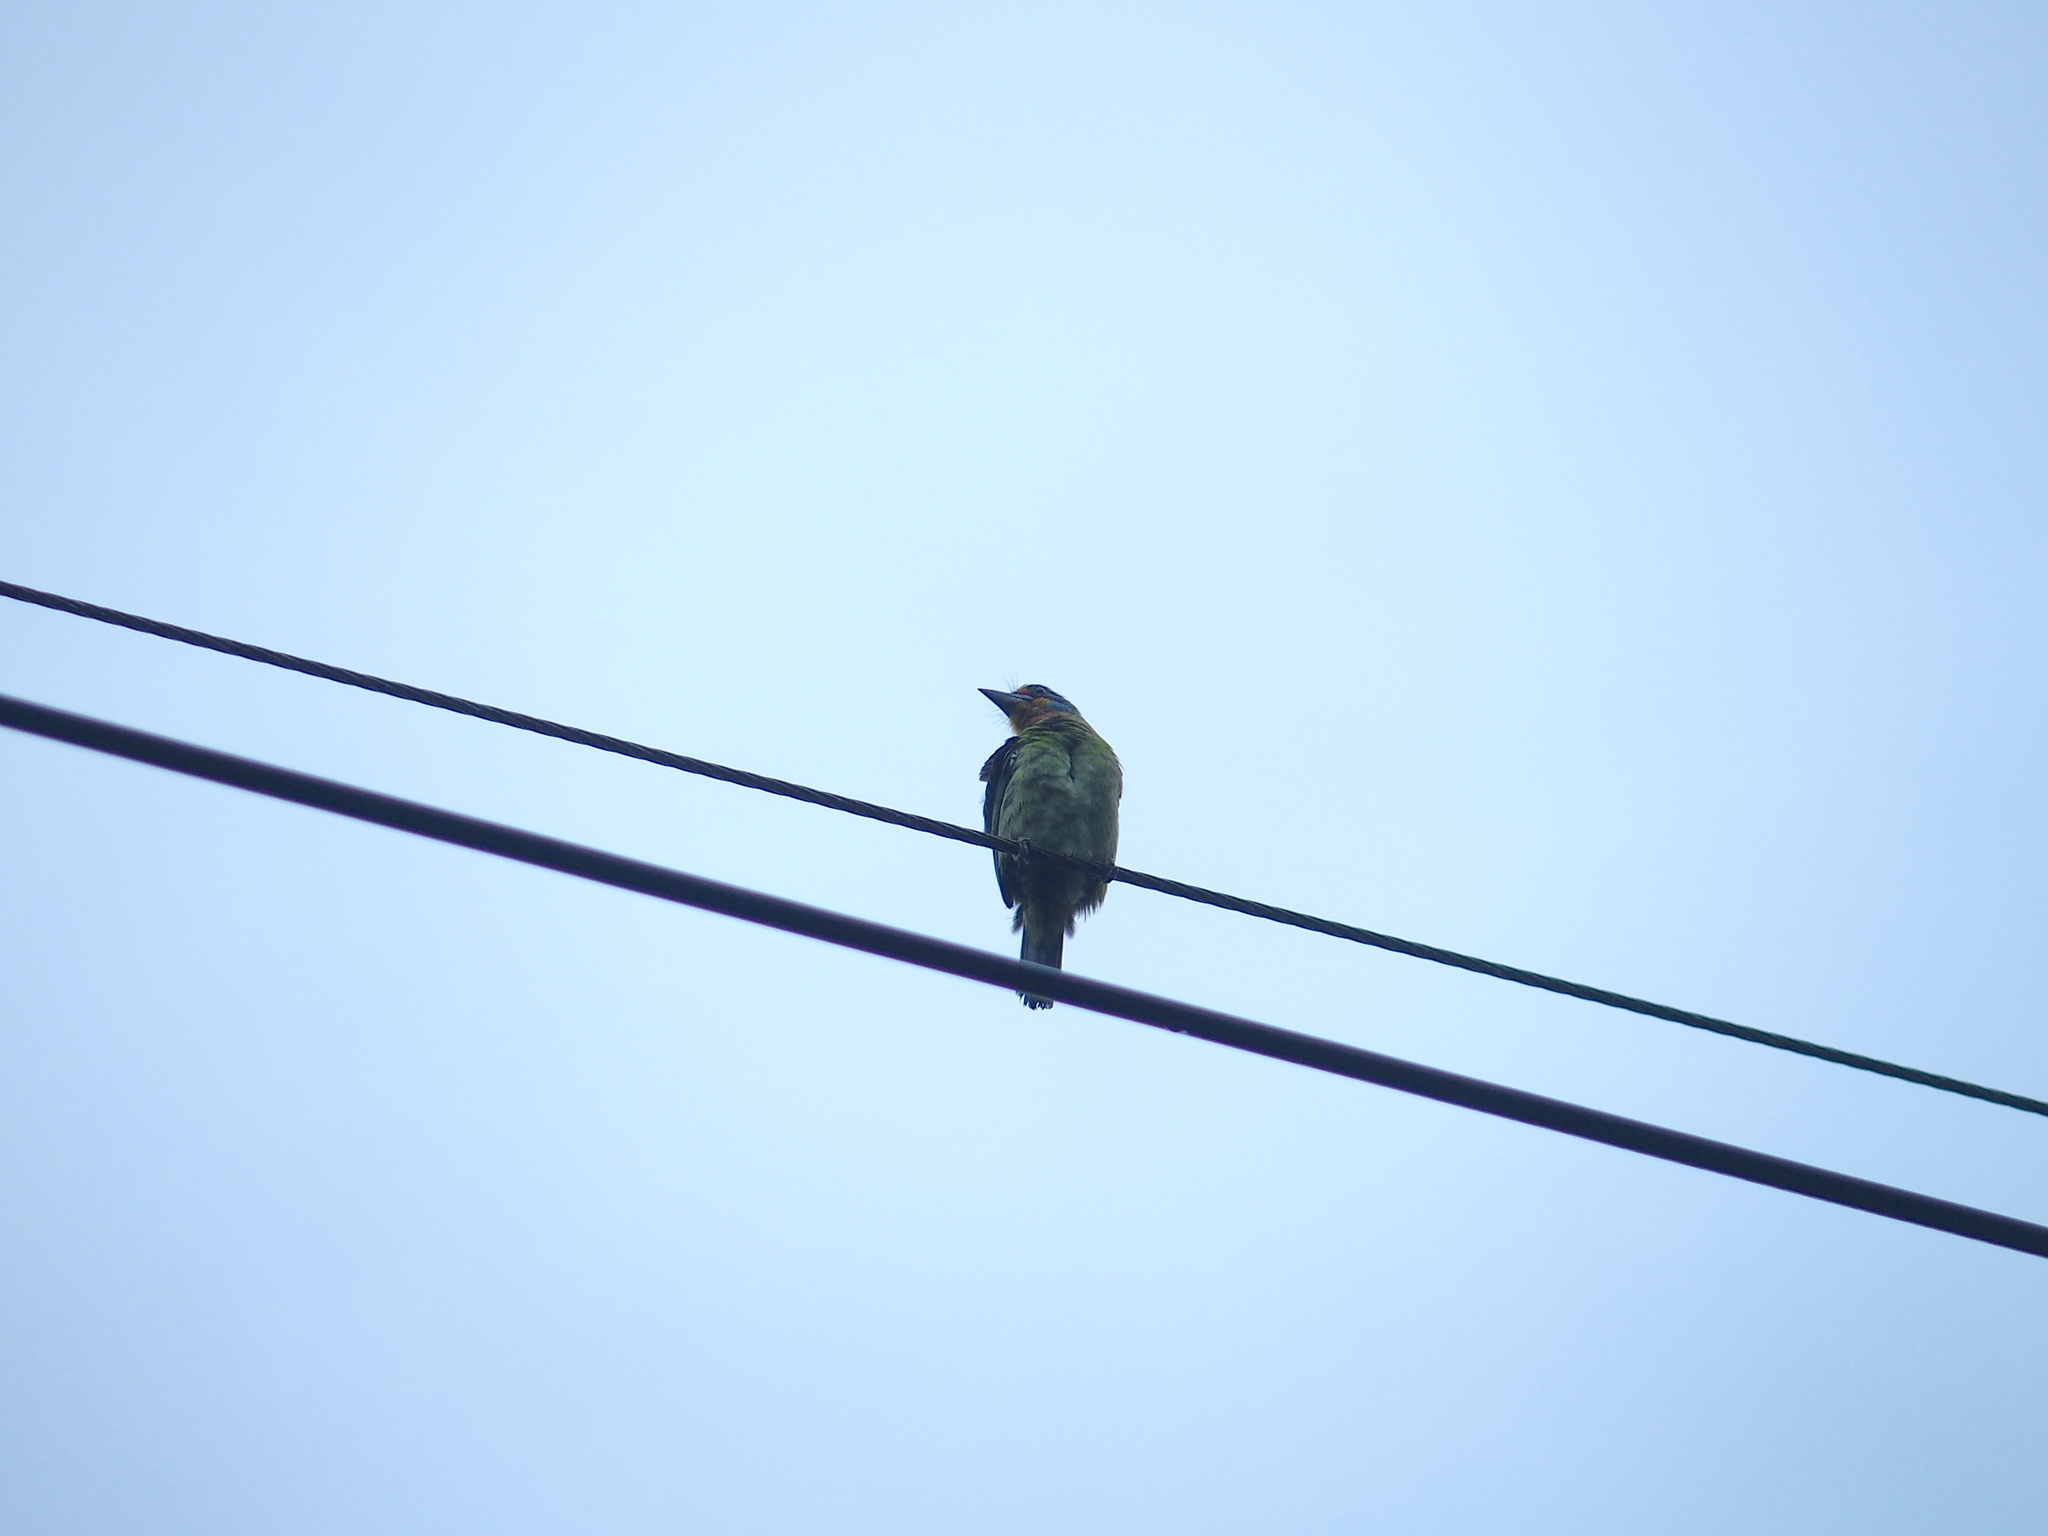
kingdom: Animalia
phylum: Chordata
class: Aves
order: Piciformes
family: Megalaimidae
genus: Psilopogon
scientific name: Psilopogon nuchalis
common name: Taiwan barbet
